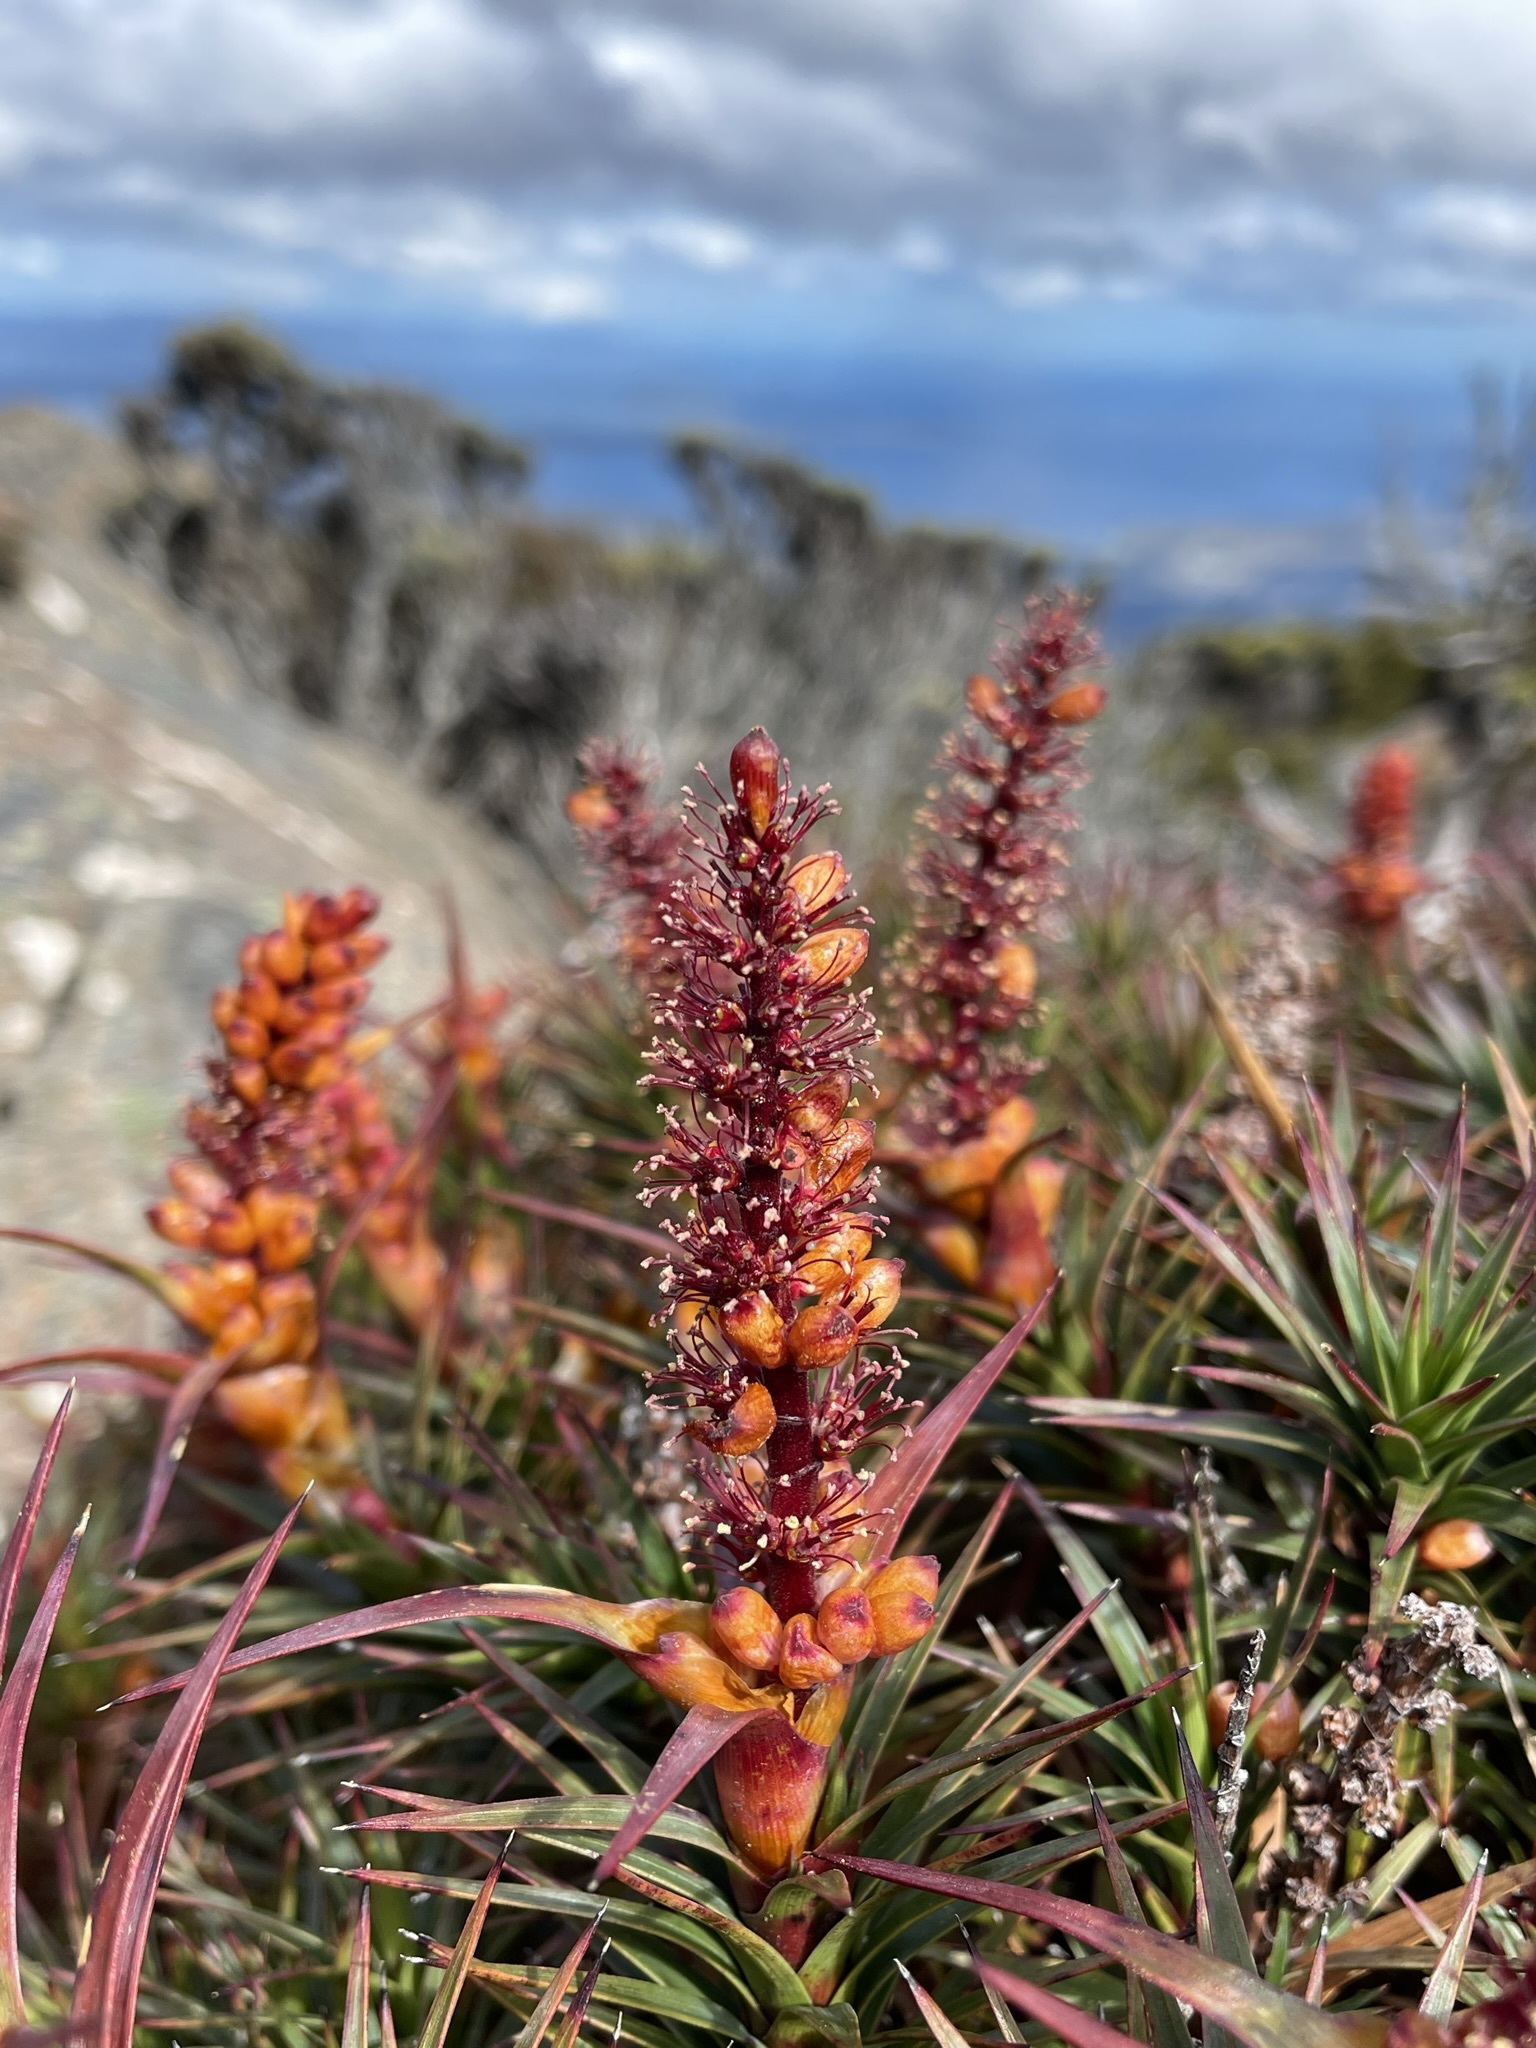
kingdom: Plantae
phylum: Tracheophyta
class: Magnoliopsida
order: Ericales
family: Ericaceae
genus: Dracophyllum
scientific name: Dracophyllum persistentifolium
